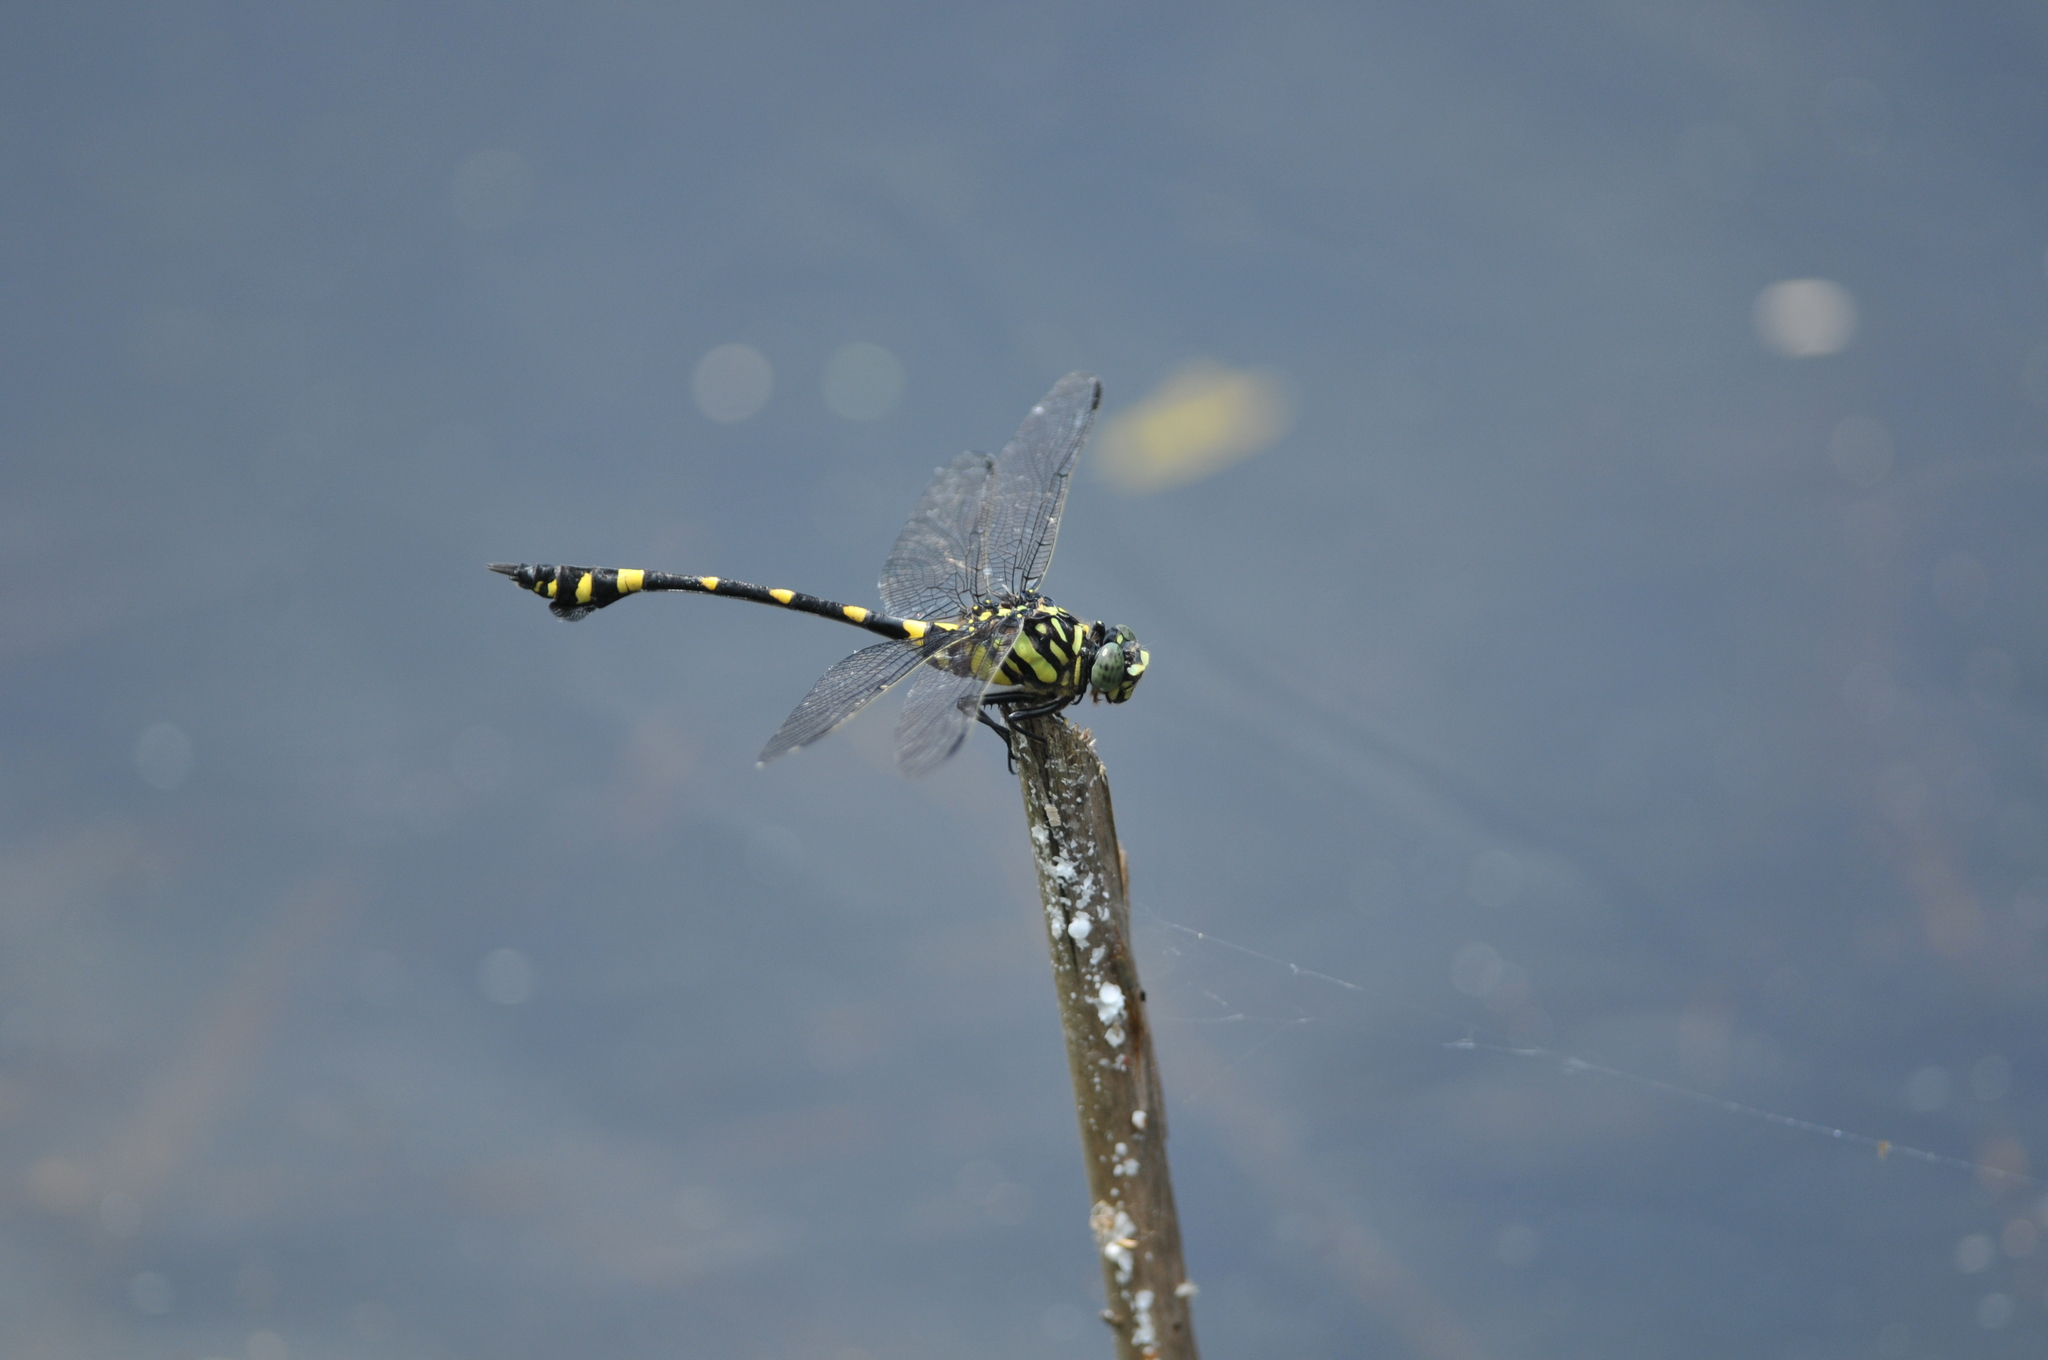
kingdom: Animalia
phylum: Arthropoda
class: Insecta
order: Odonata
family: Gomphidae
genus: Ictinogomphus
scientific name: Ictinogomphus rapax
